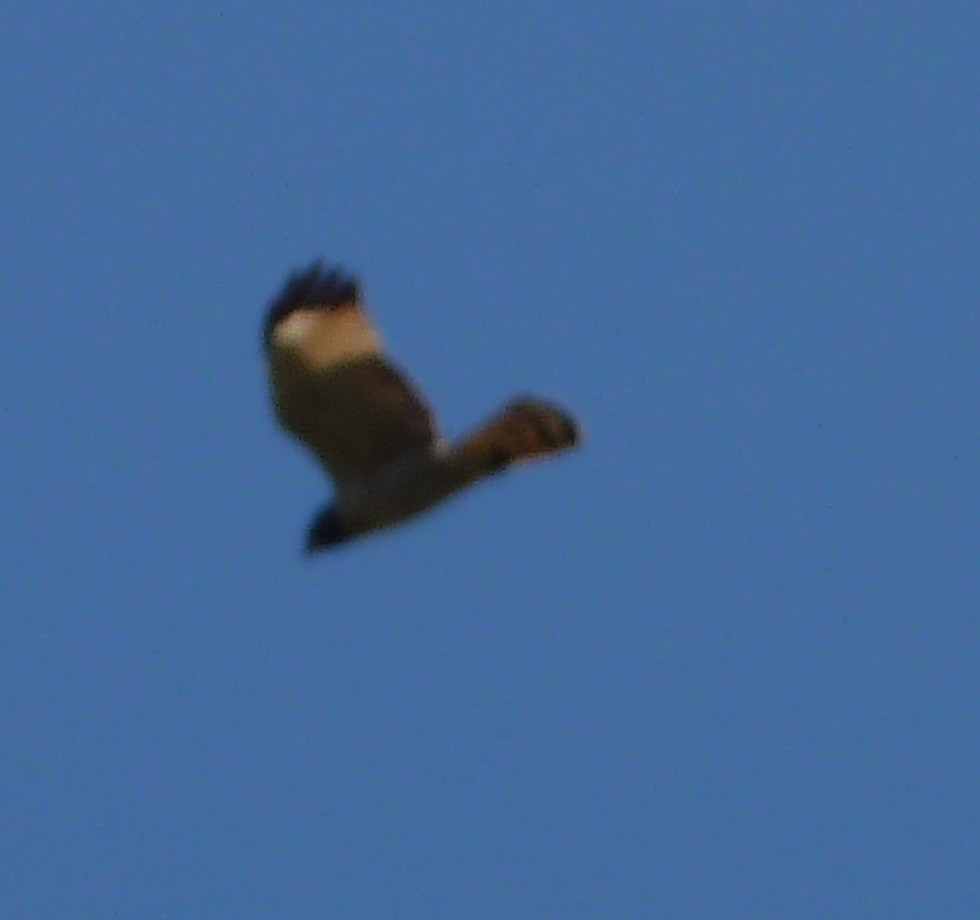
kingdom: Animalia
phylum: Chordata
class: Aves
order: Accipitriformes
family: Accipitridae
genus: Rupornis
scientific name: Rupornis magnirostris
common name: Roadside hawk
